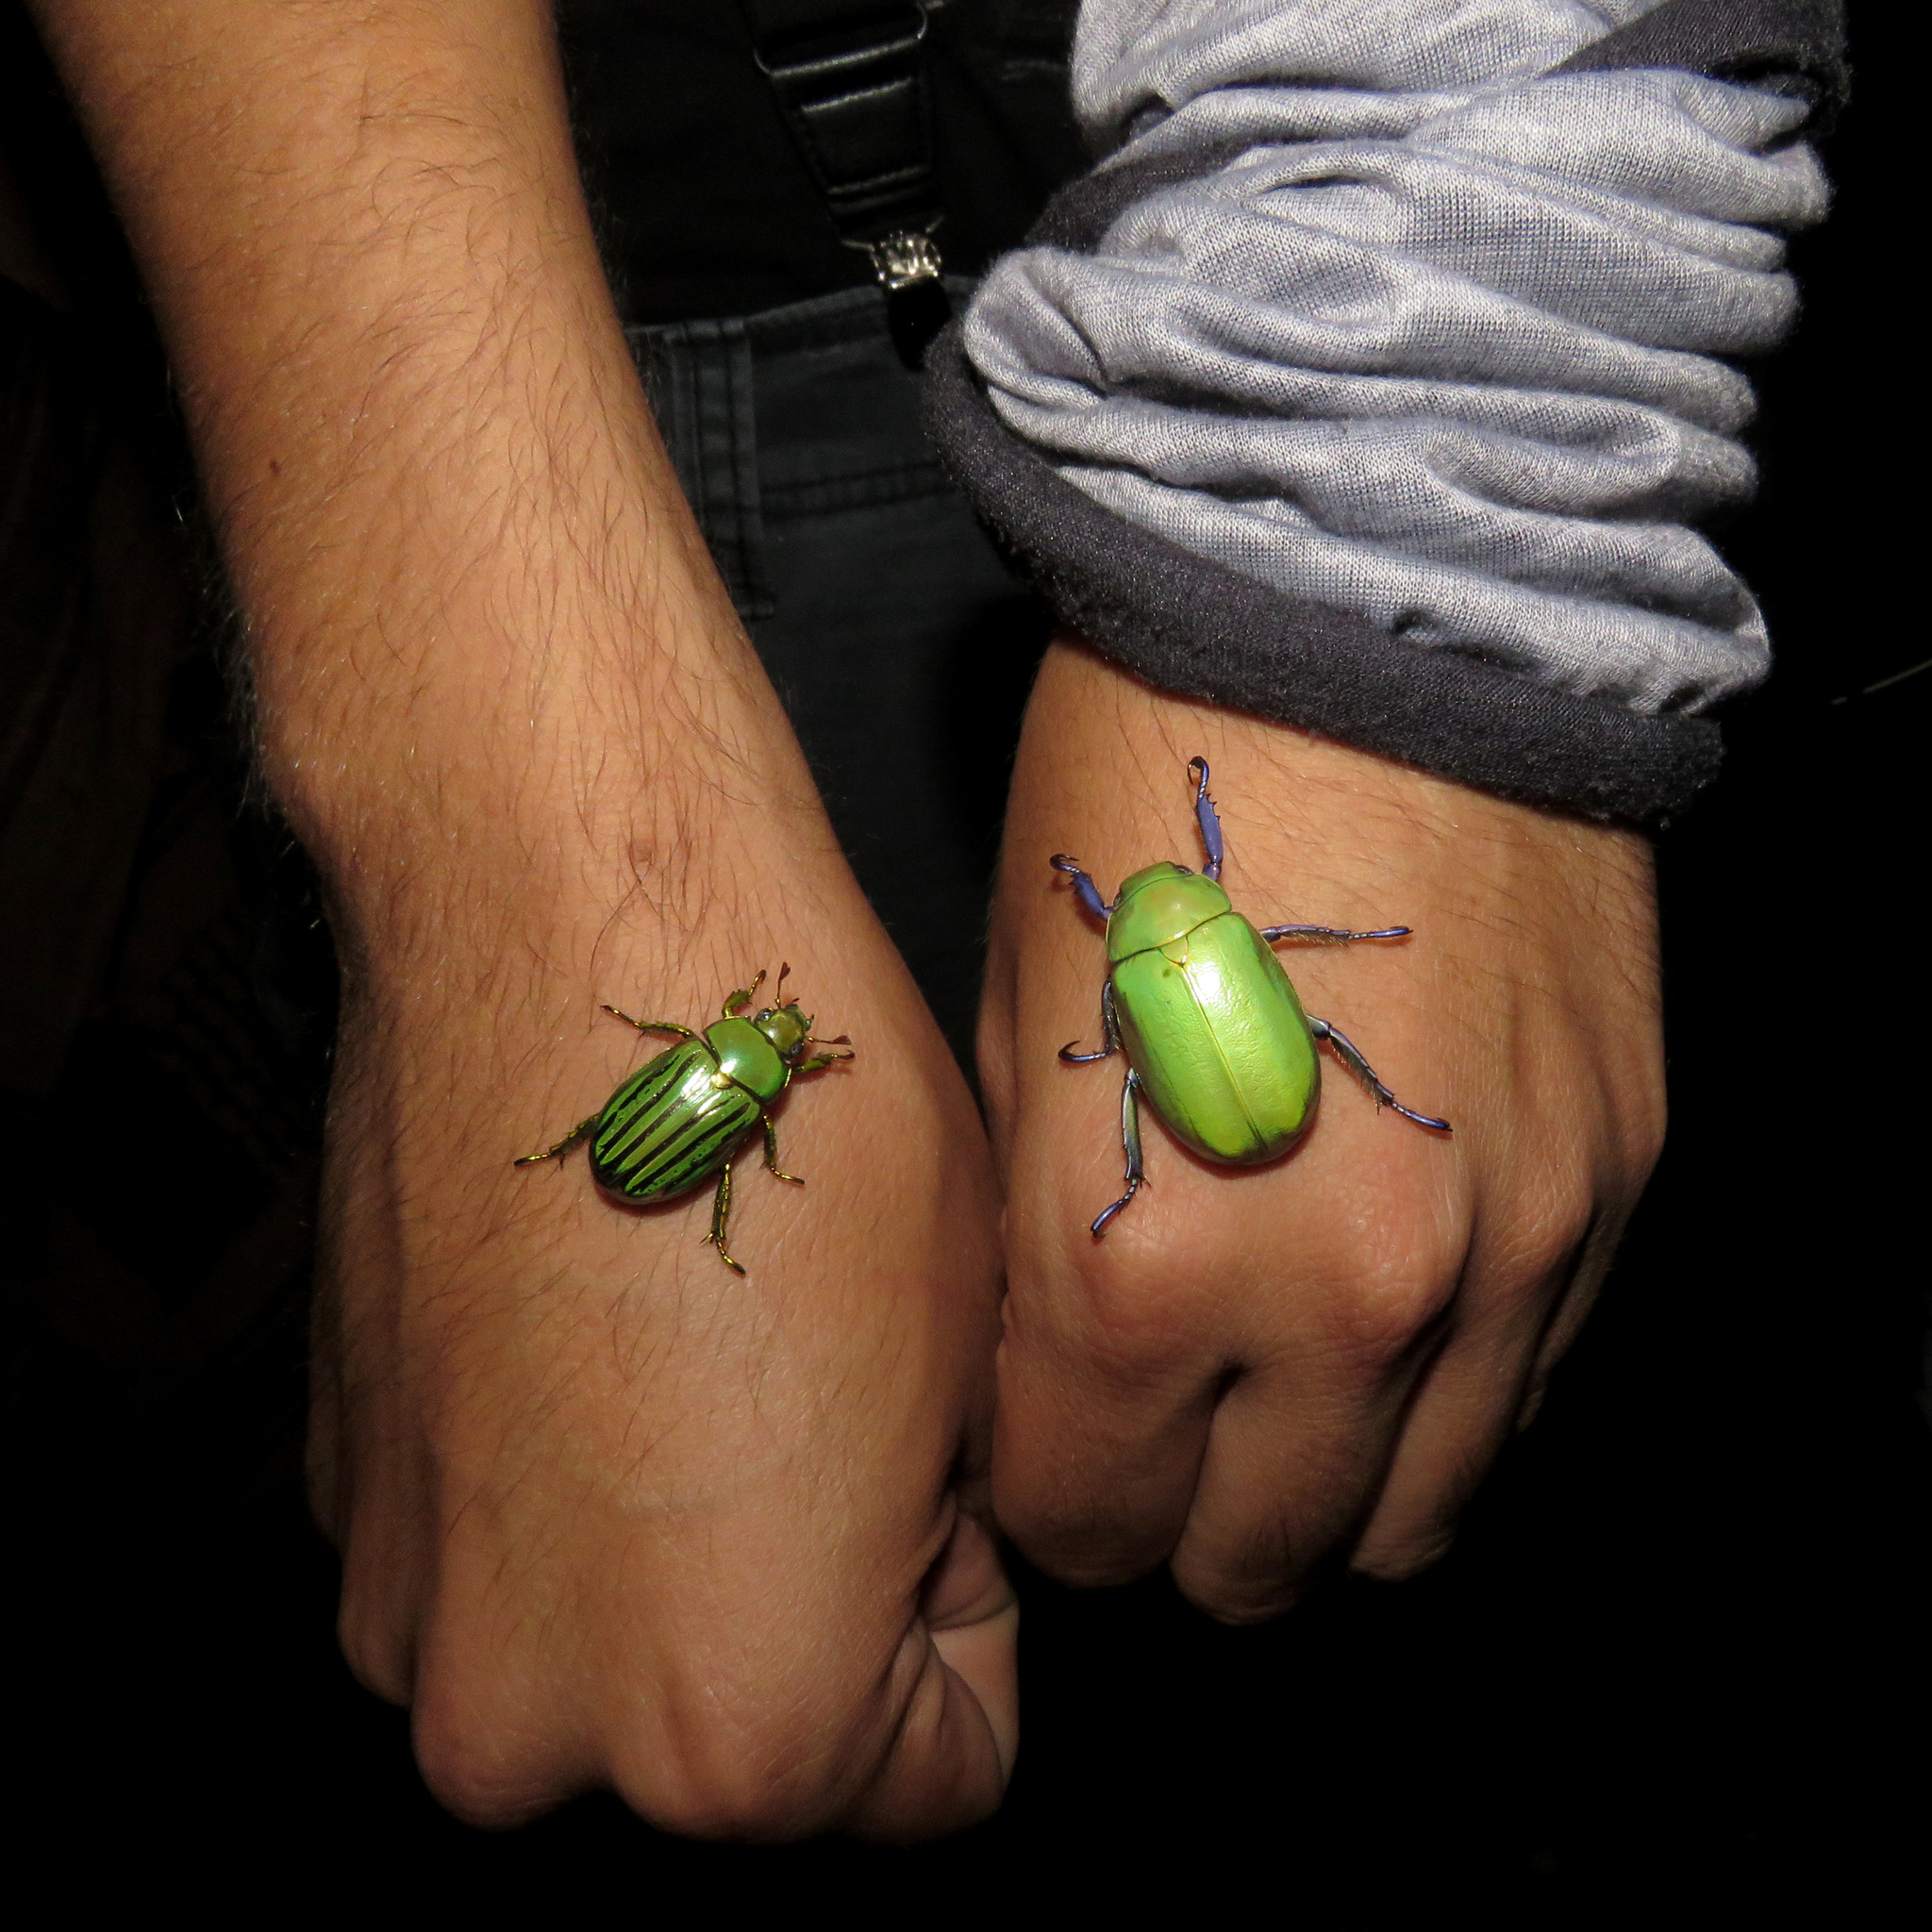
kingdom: Animalia
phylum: Arthropoda
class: Insecta
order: Coleoptera
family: Scarabaeidae
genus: Chrysina
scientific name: Chrysina gloriosa
